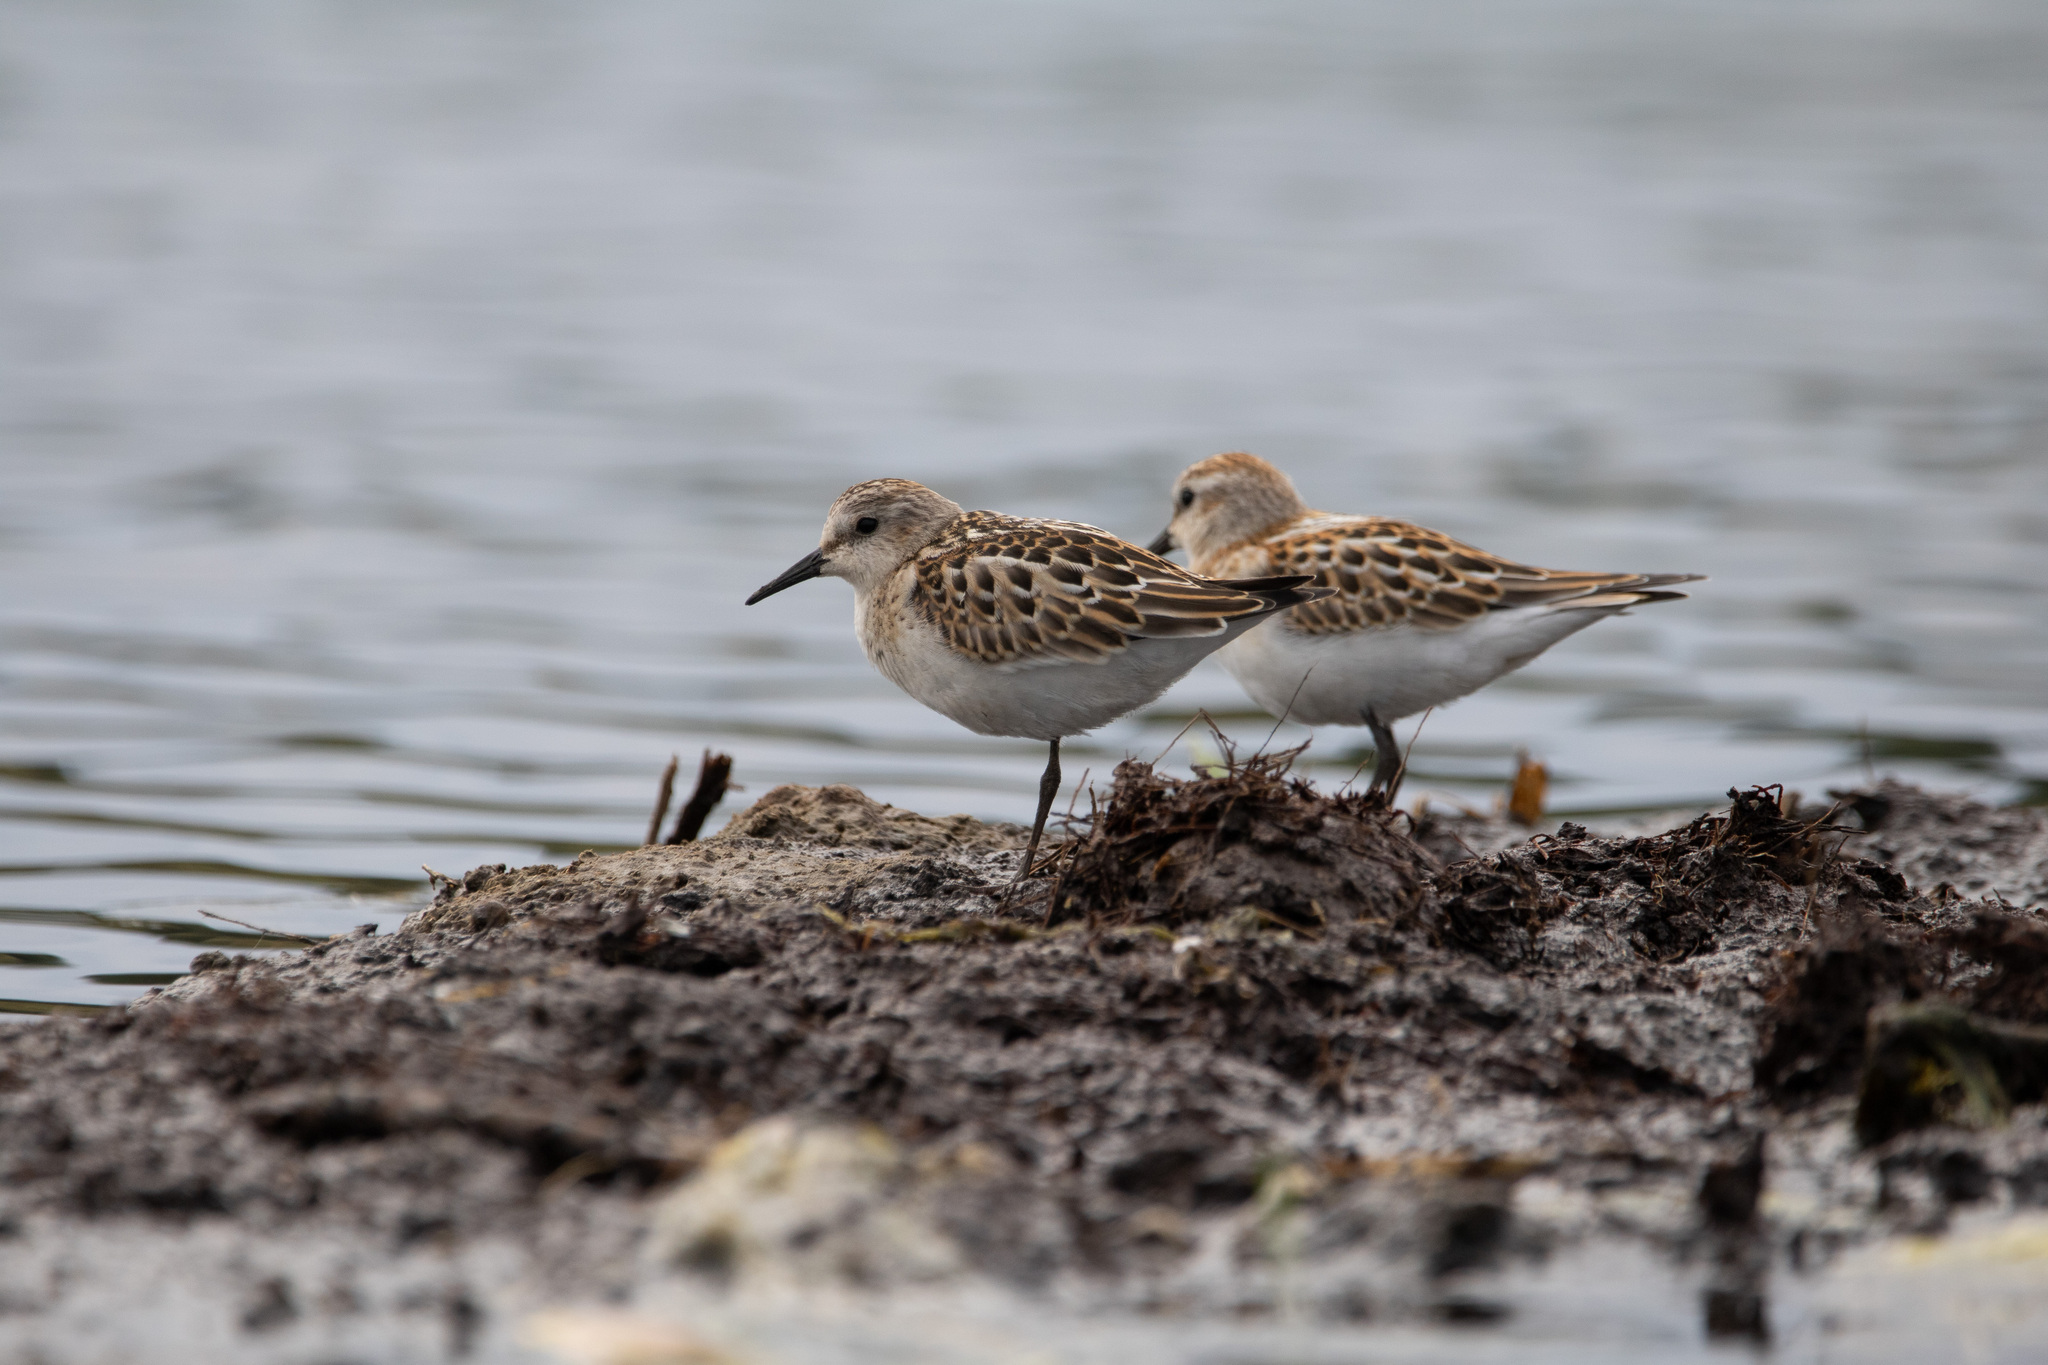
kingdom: Animalia
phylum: Chordata
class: Aves
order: Charadriiformes
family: Scolopacidae
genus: Calidris
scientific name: Calidris minuta
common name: Little stint
